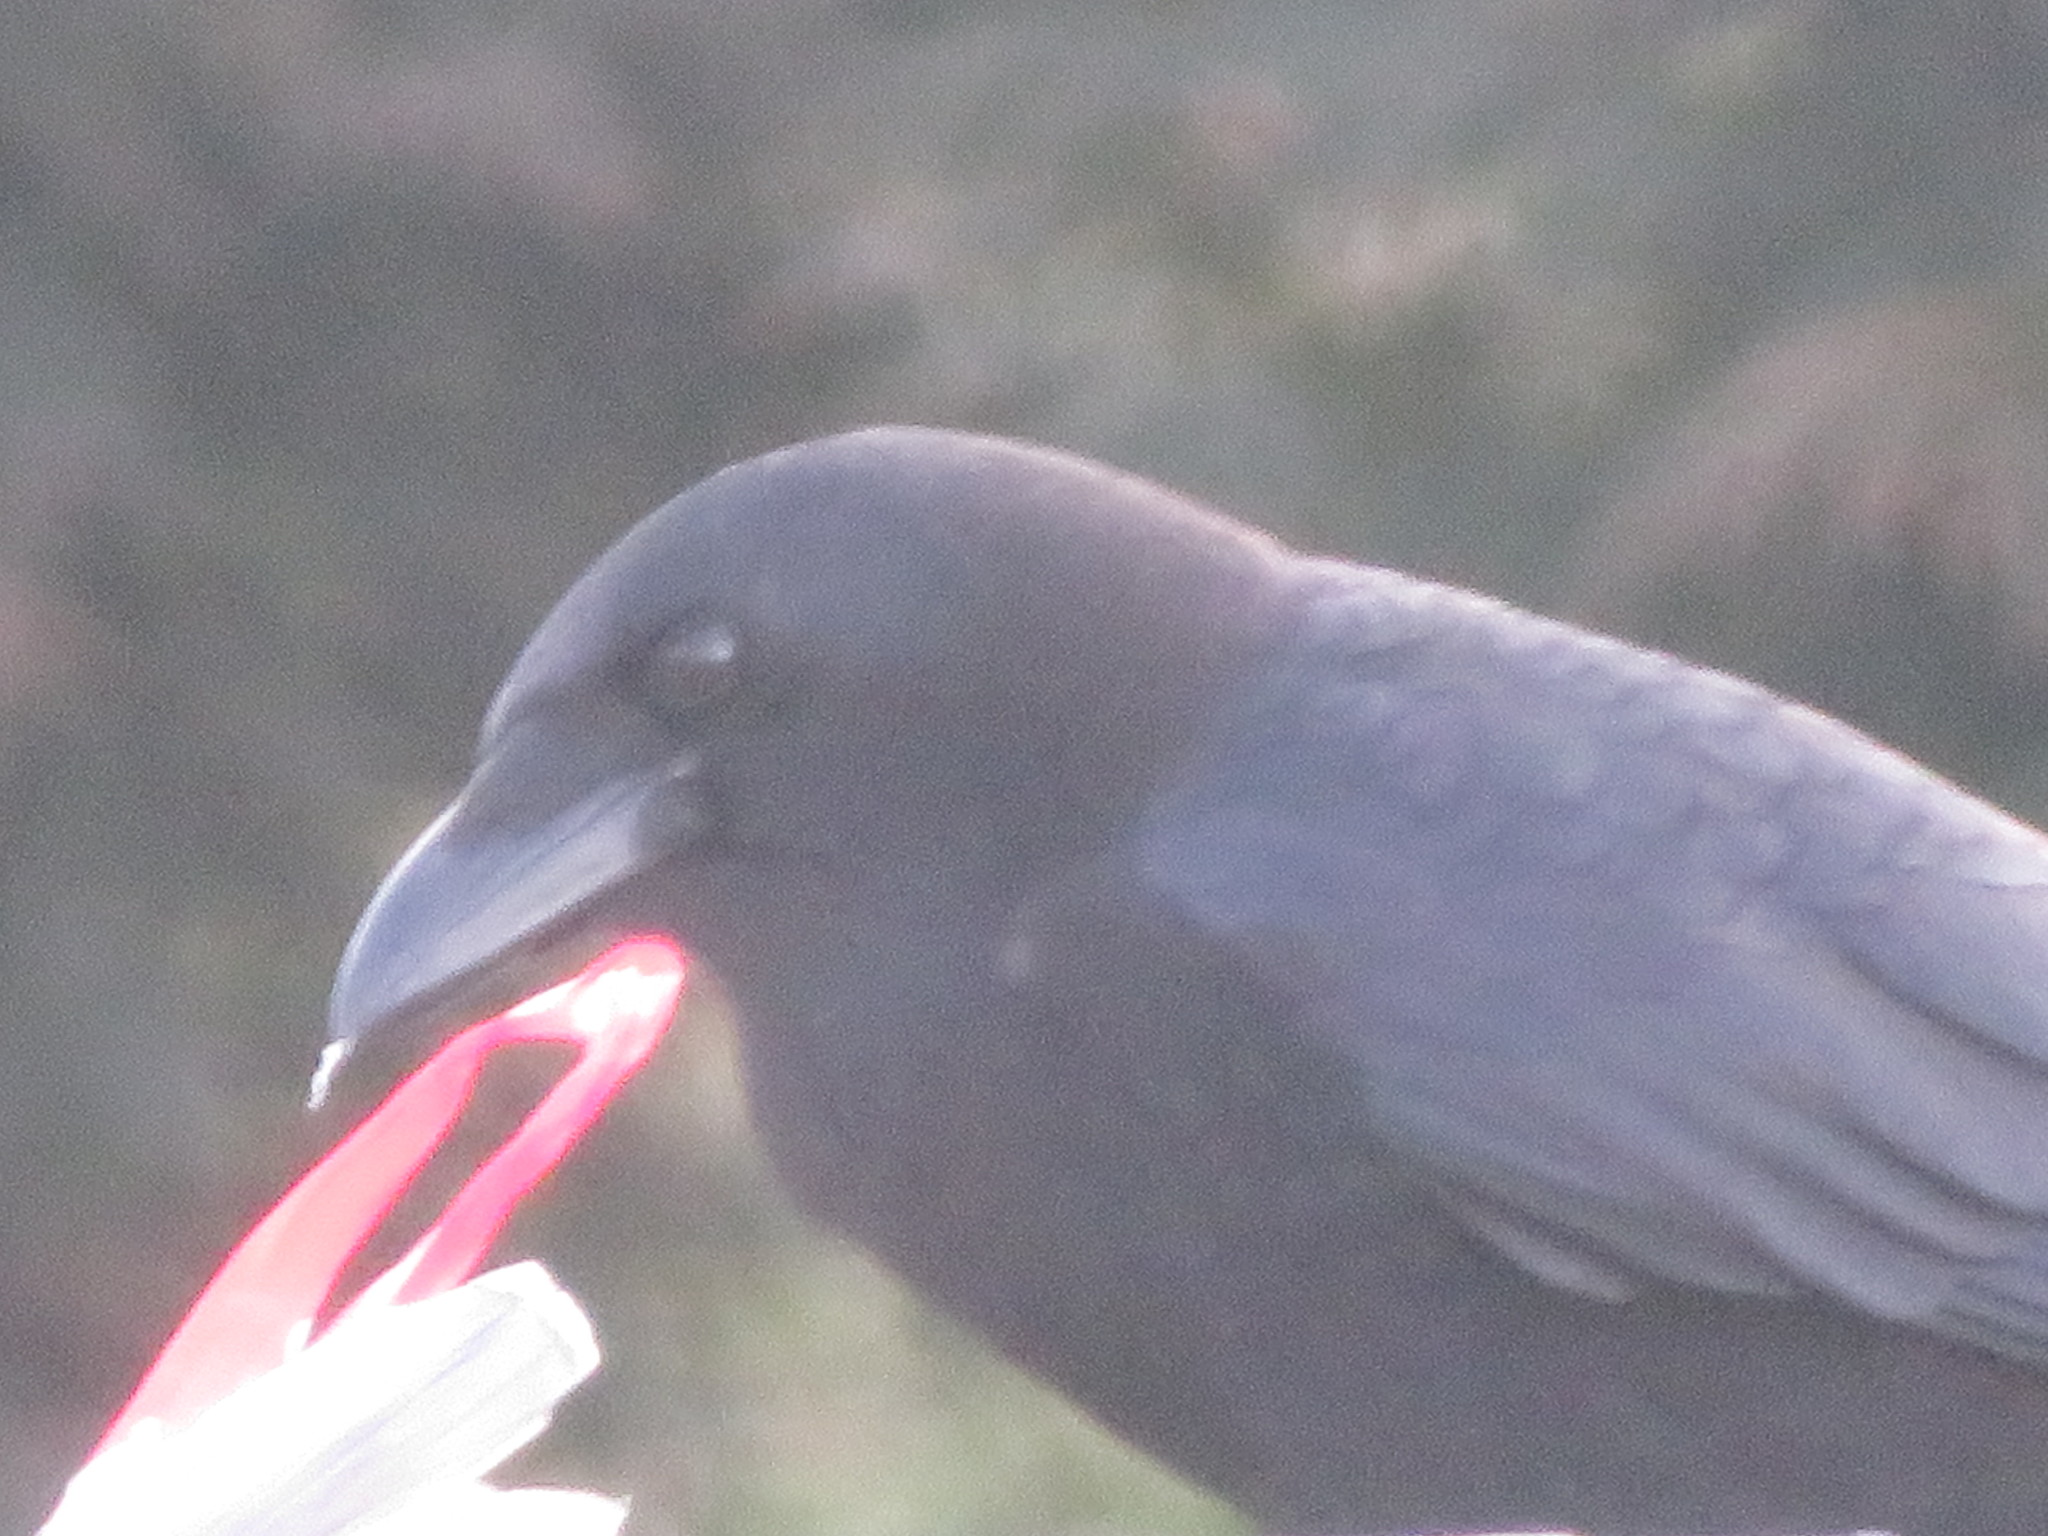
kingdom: Animalia
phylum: Chordata
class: Aves
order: Passeriformes
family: Corvidae
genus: Corvus
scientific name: Corvus brachyrhynchos
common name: American crow
